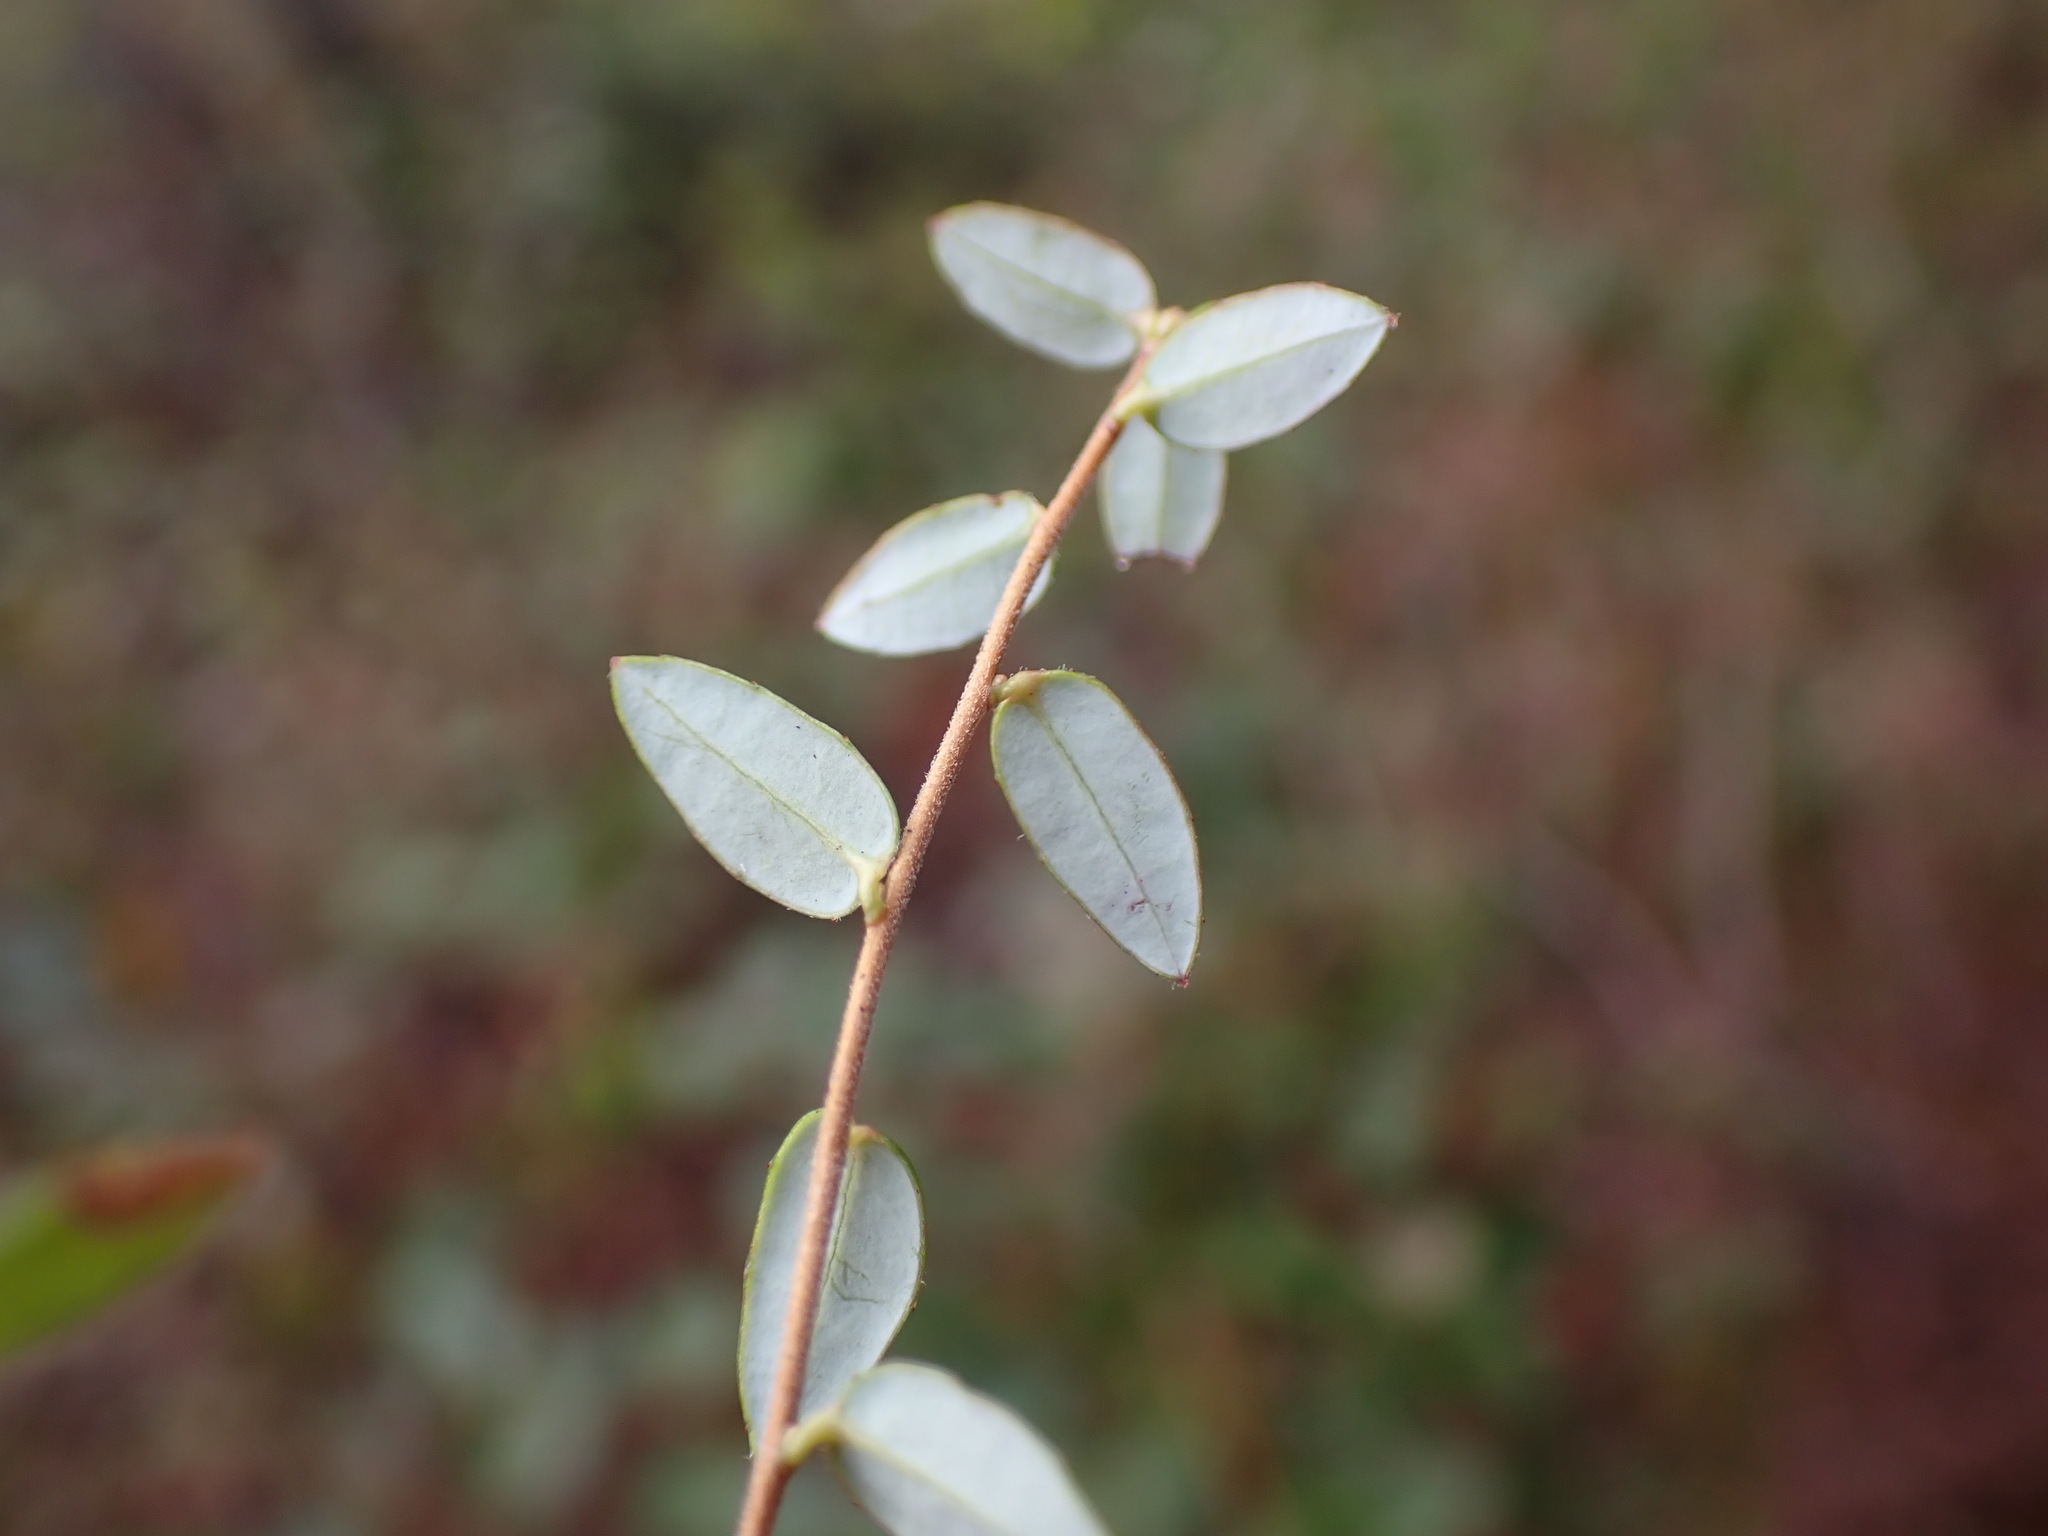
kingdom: Plantae
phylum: Tracheophyta
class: Magnoliopsida
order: Ericales
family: Ericaceae
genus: Vaccinium
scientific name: Vaccinium oxycoccos
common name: Cranberry
